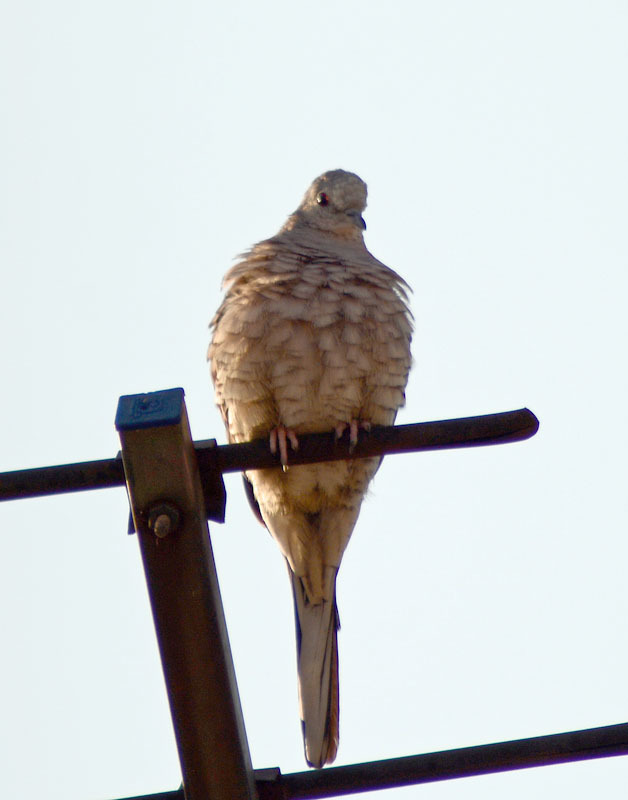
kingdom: Animalia
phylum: Chordata
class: Aves
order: Columbiformes
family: Columbidae
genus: Columbina
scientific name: Columbina inca
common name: Inca dove
